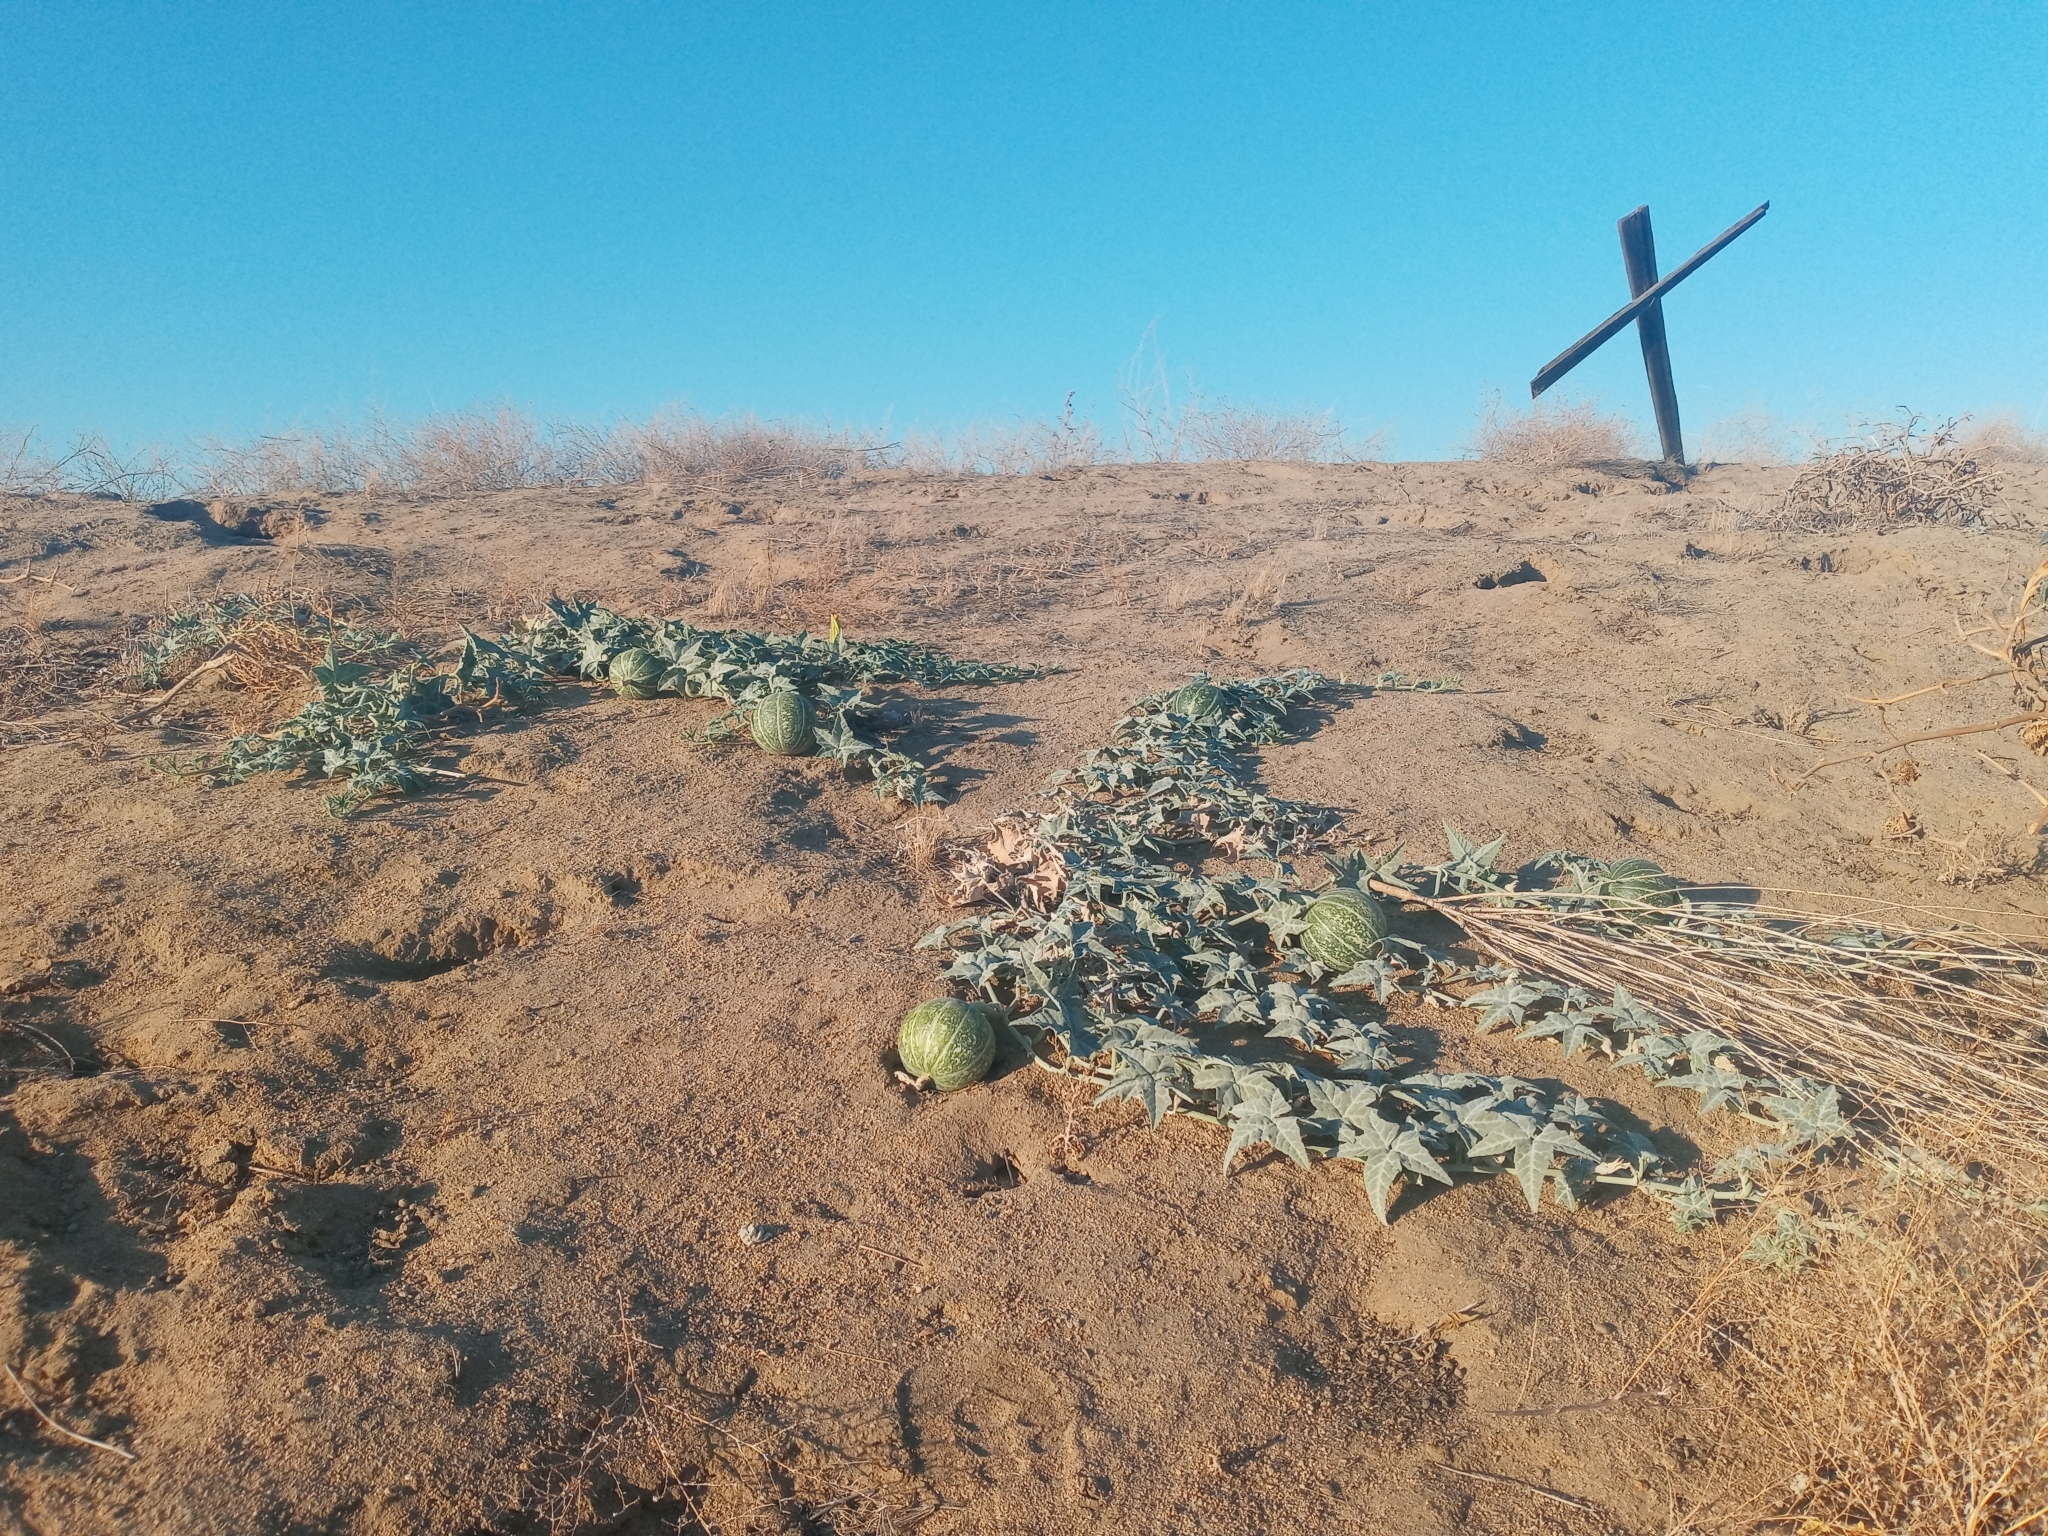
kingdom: Plantae
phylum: Tracheophyta
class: Magnoliopsida
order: Cucurbitales
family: Cucurbitaceae
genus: Cucurbita
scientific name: Cucurbita palmata
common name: Coyote-melon
